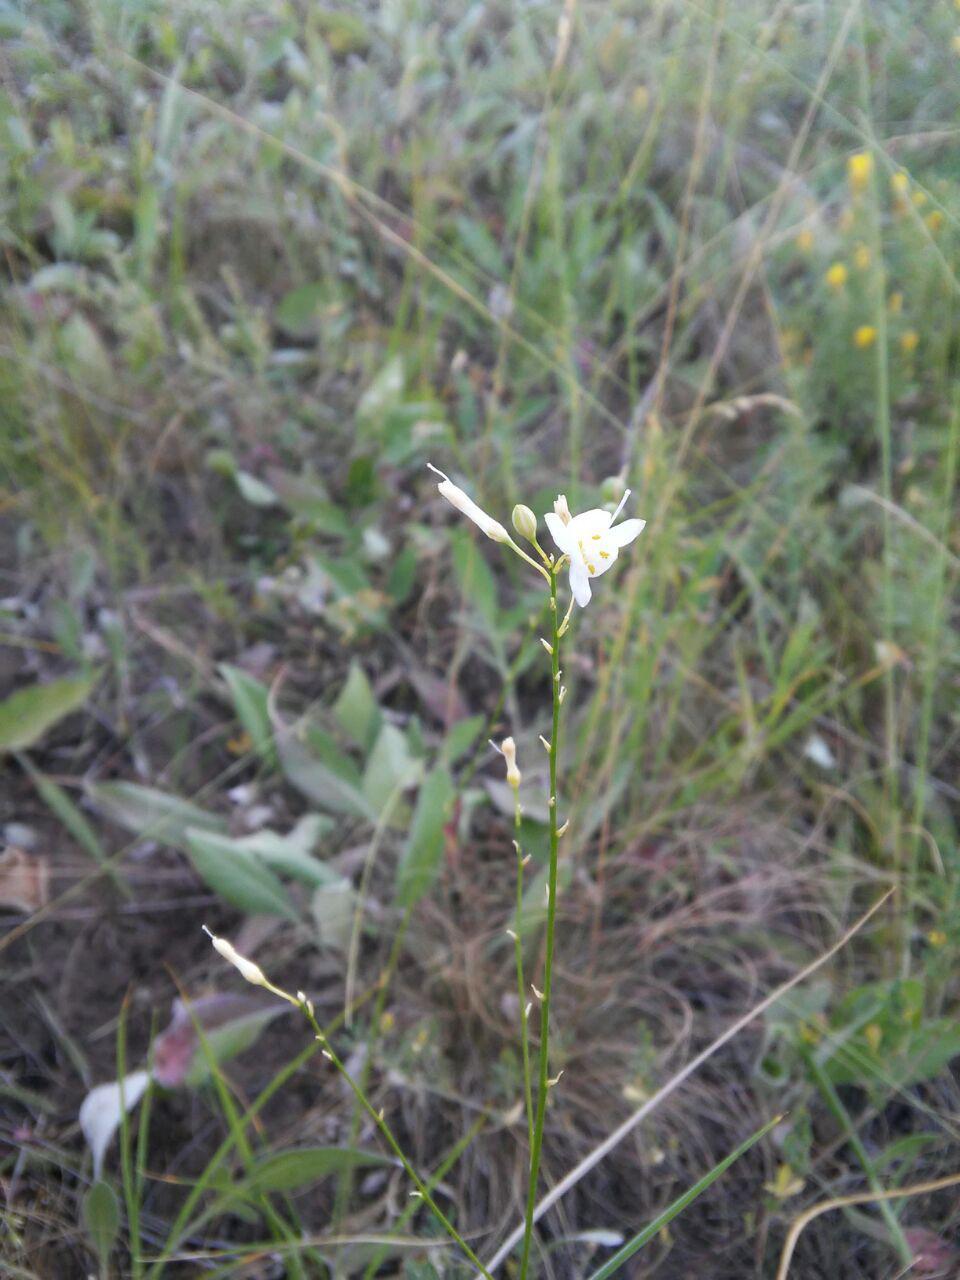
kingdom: Plantae
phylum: Tracheophyta
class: Liliopsida
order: Asparagales
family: Asparagaceae
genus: Anthericum
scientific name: Anthericum ramosum
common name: Branched st. bernard's-lily
